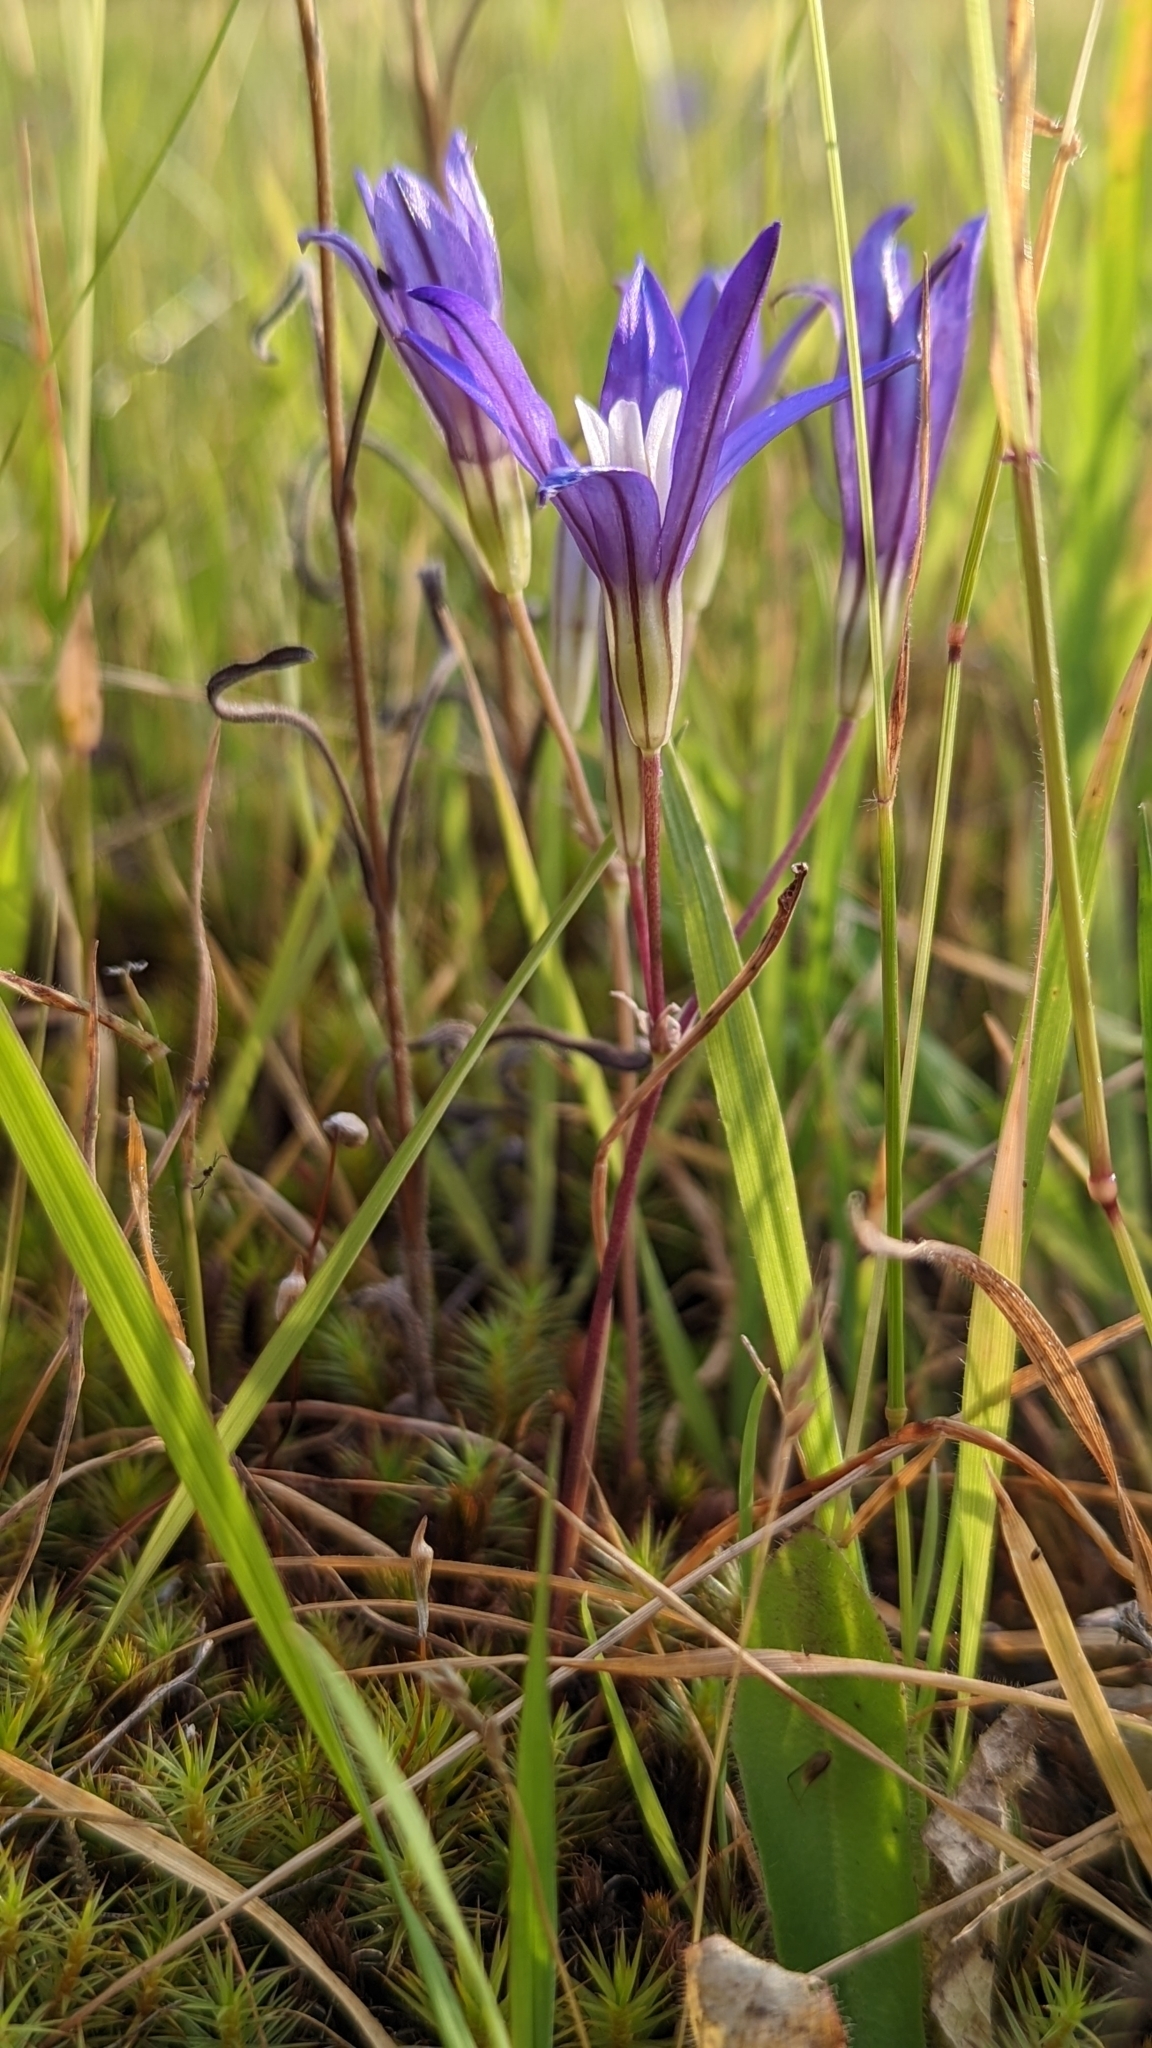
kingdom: Plantae
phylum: Tracheophyta
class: Liliopsida
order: Asparagales
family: Asparagaceae
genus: Brodiaea
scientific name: Brodiaea coronaria
